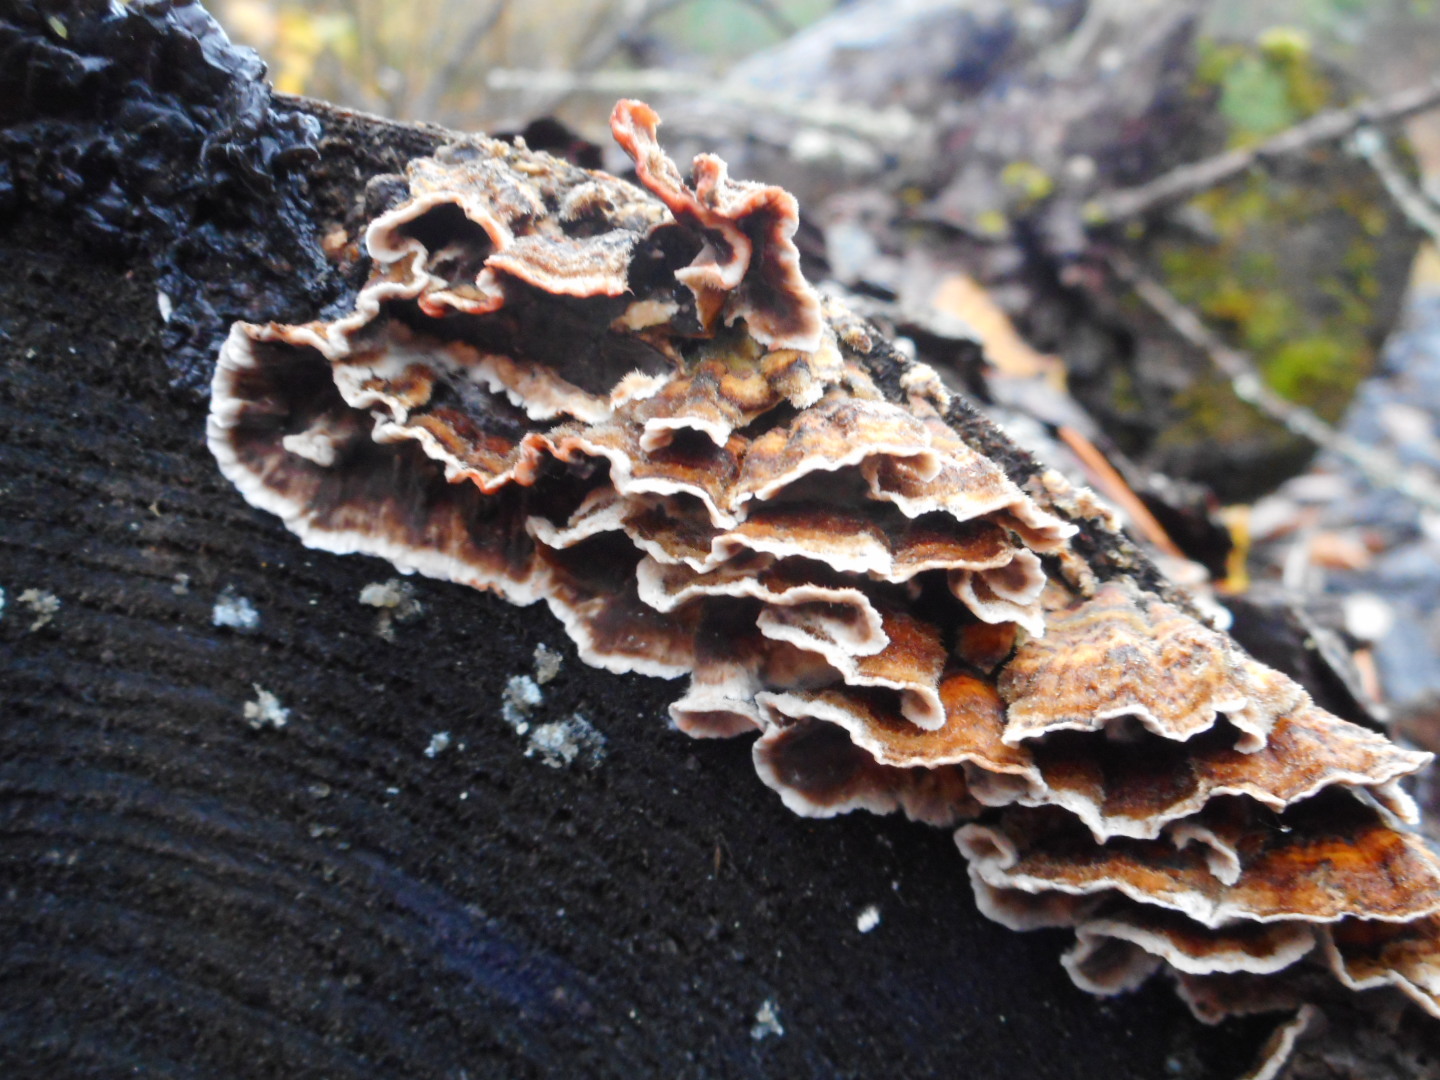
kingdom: Fungi
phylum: Basidiomycota
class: Agaricomycetes
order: Russulales
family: Stereaceae
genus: Stereum
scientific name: Stereum sanguinolentum
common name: Bleeding conifer crust
